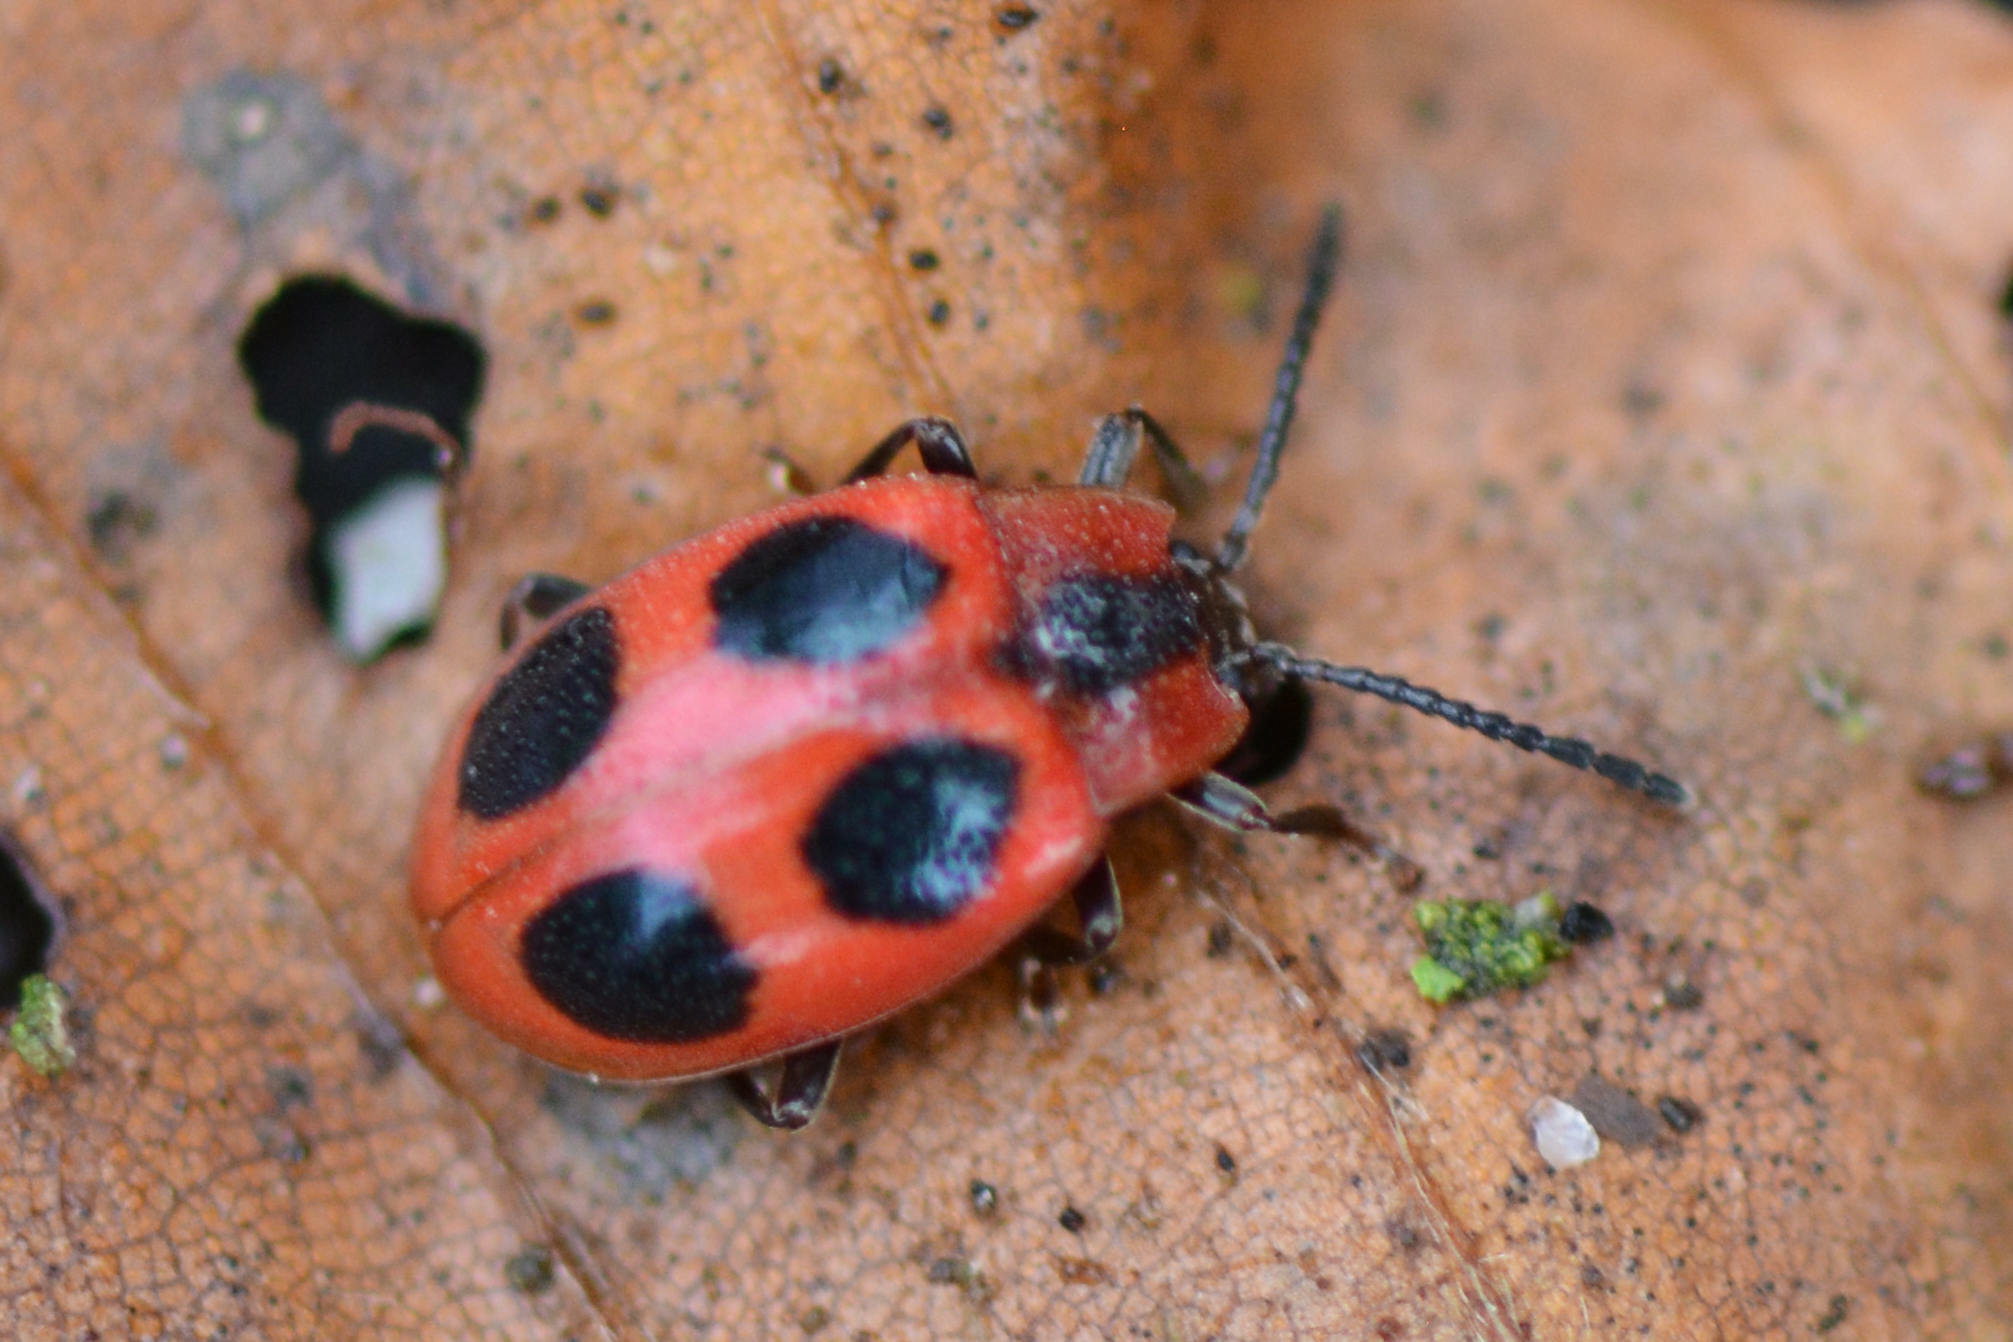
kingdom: Animalia
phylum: Arthropoda
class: Insecta
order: Coleoptera
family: Endomychidae
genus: Endomychus
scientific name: Endomychus coccineus
